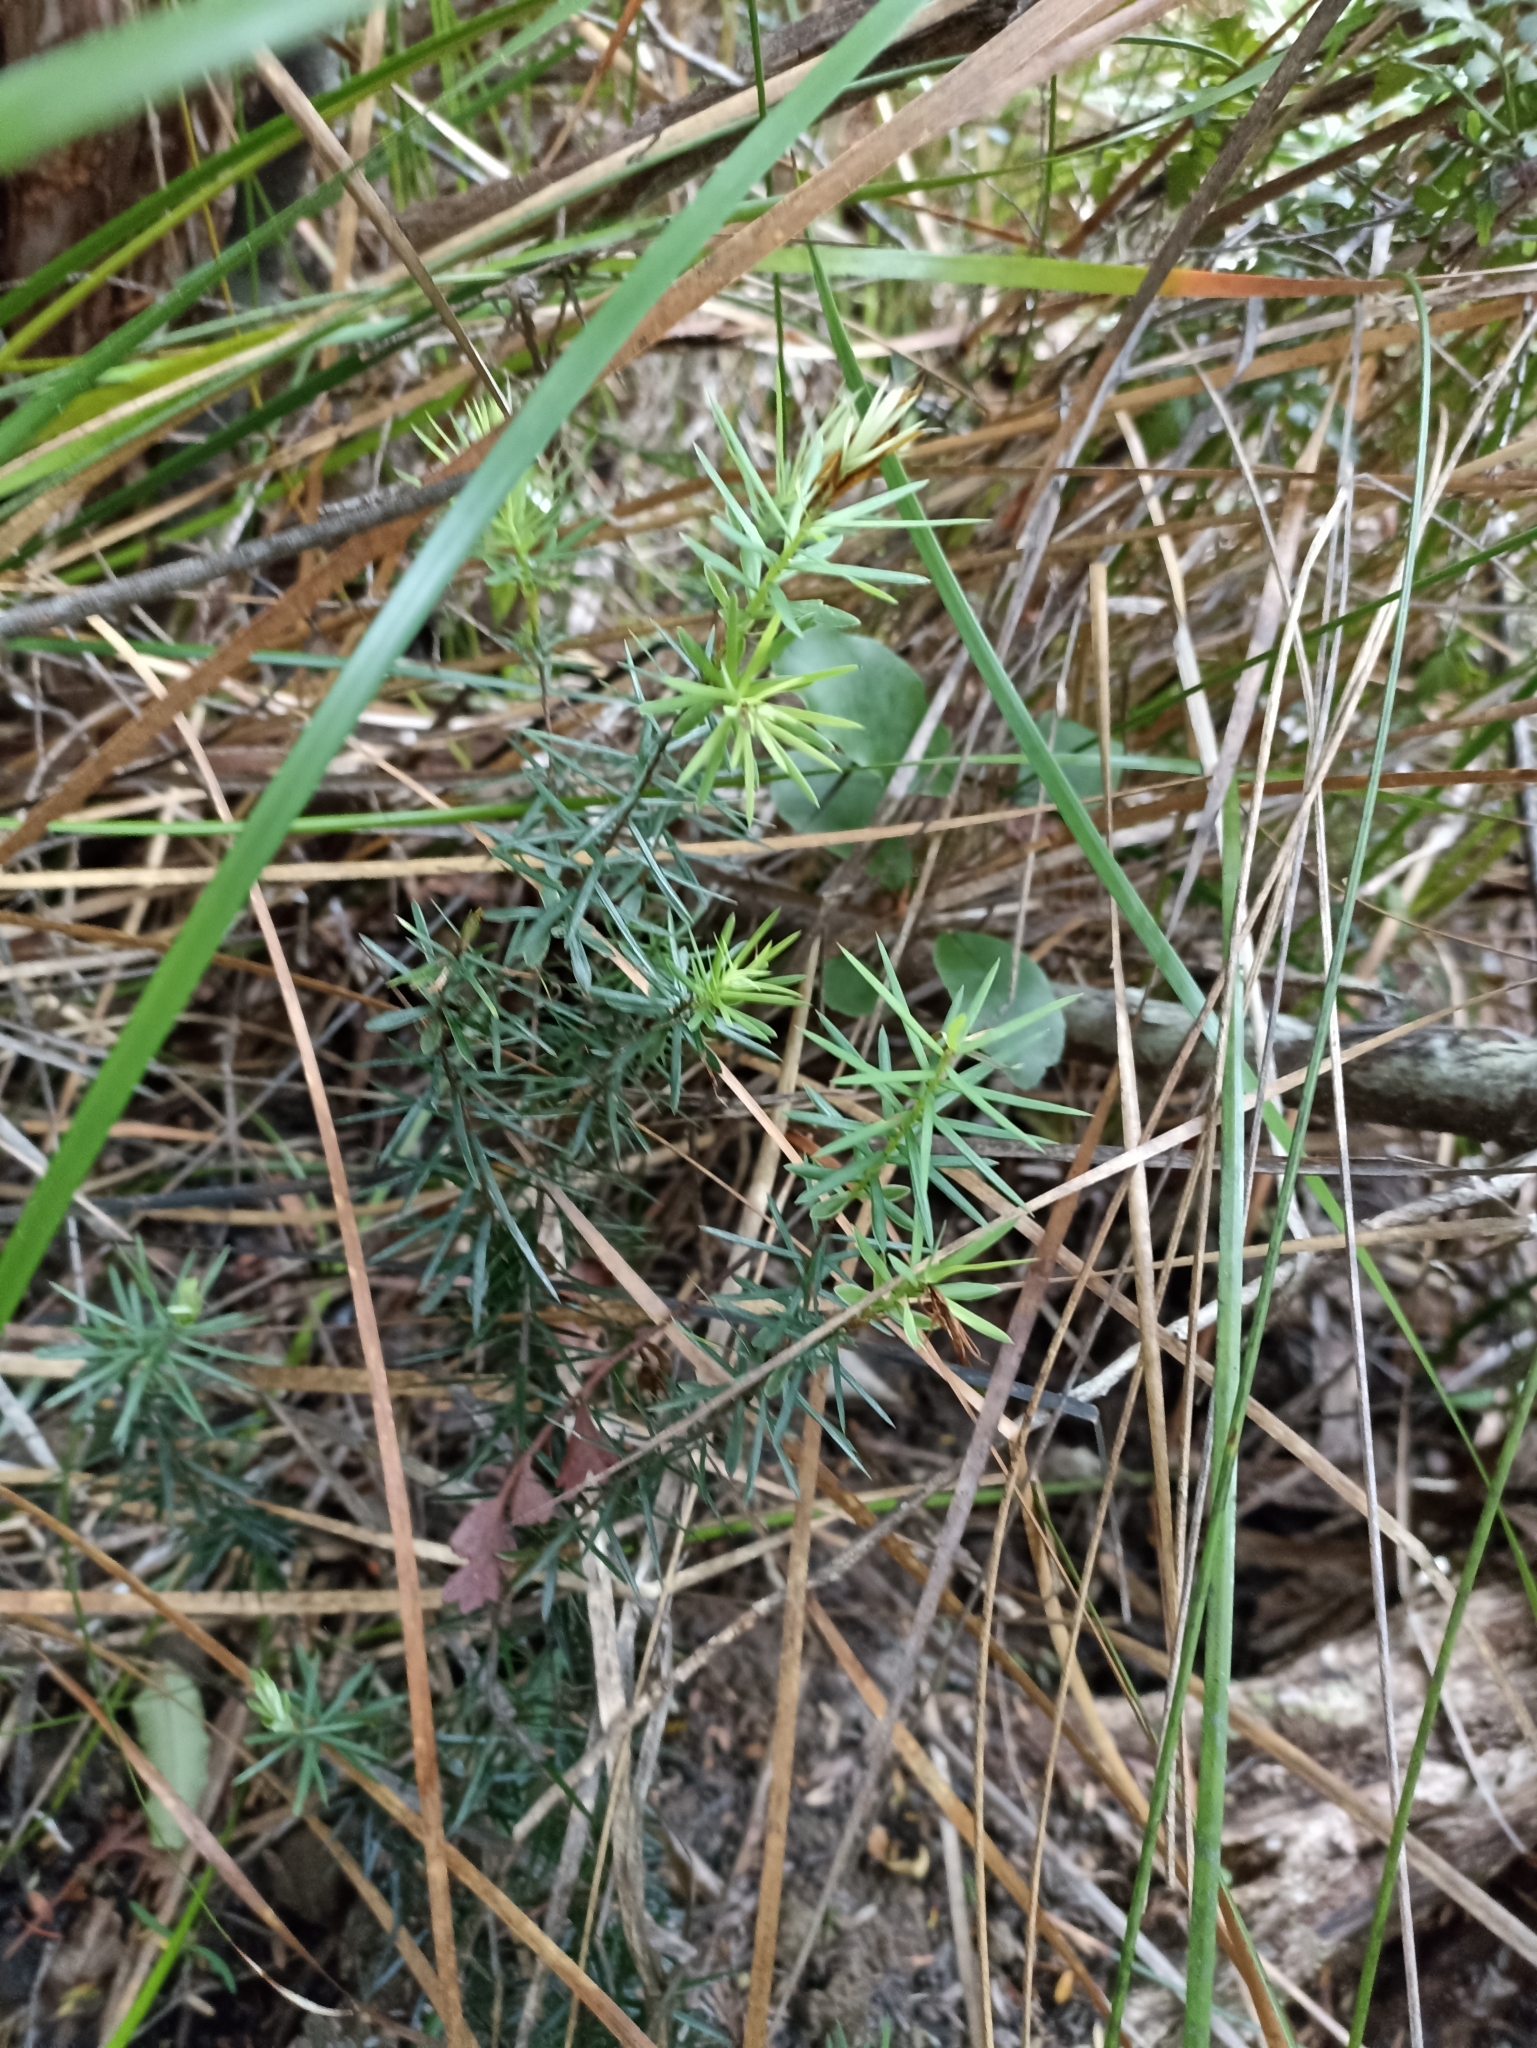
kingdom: Plantae
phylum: Tracheophyta
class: Magnoliopsida
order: Ericales
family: Ericaceae
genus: Leptecophylla
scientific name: Leptecophylla juniperina
